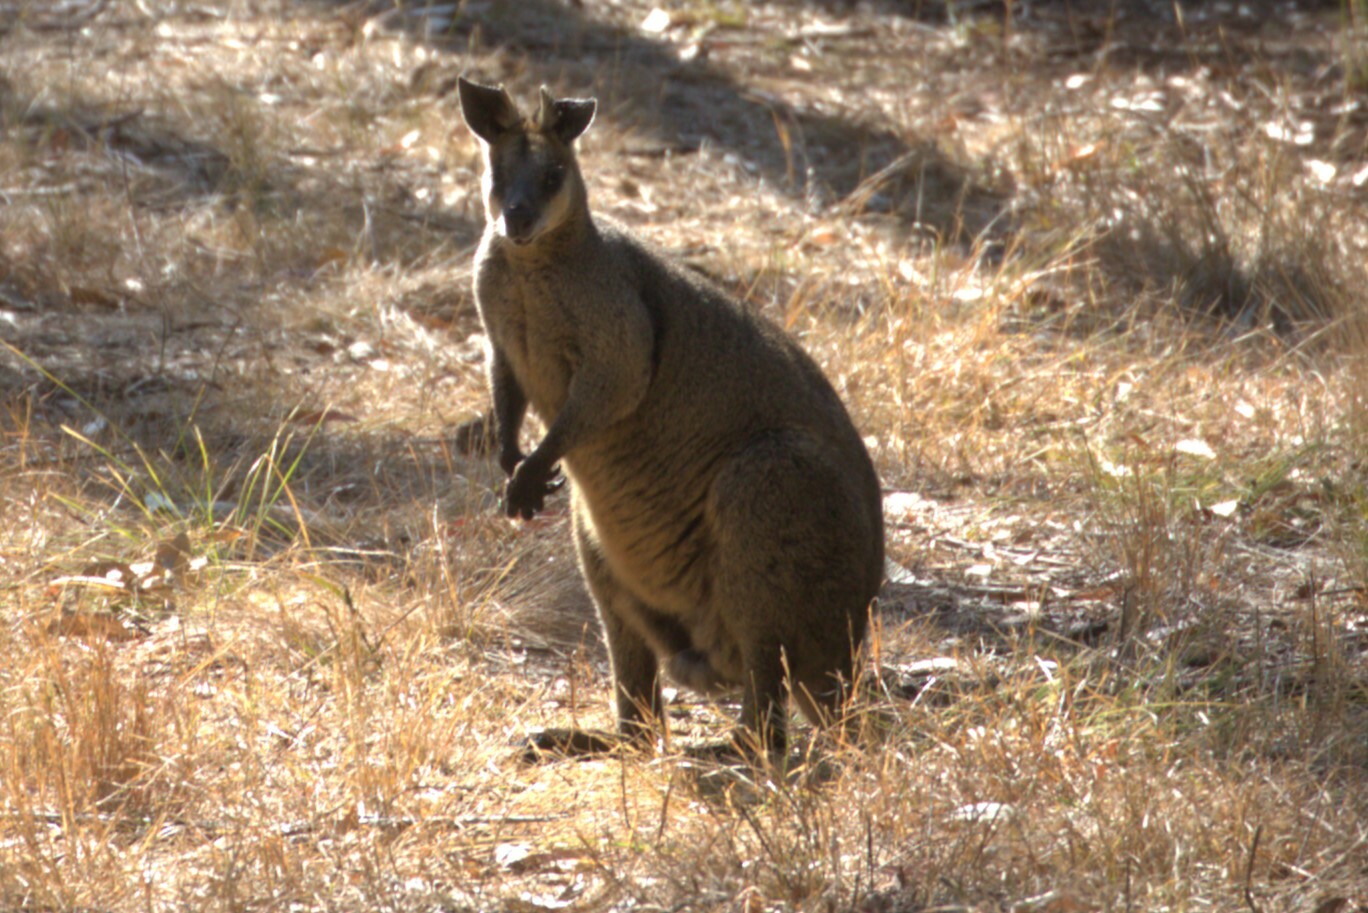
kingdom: Animalia
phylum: Chordata
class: Mammalia
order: Diprotodontia
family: Macropodidae
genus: Wallabia
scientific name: Wallabia bicolor
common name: Swamp wallaby
